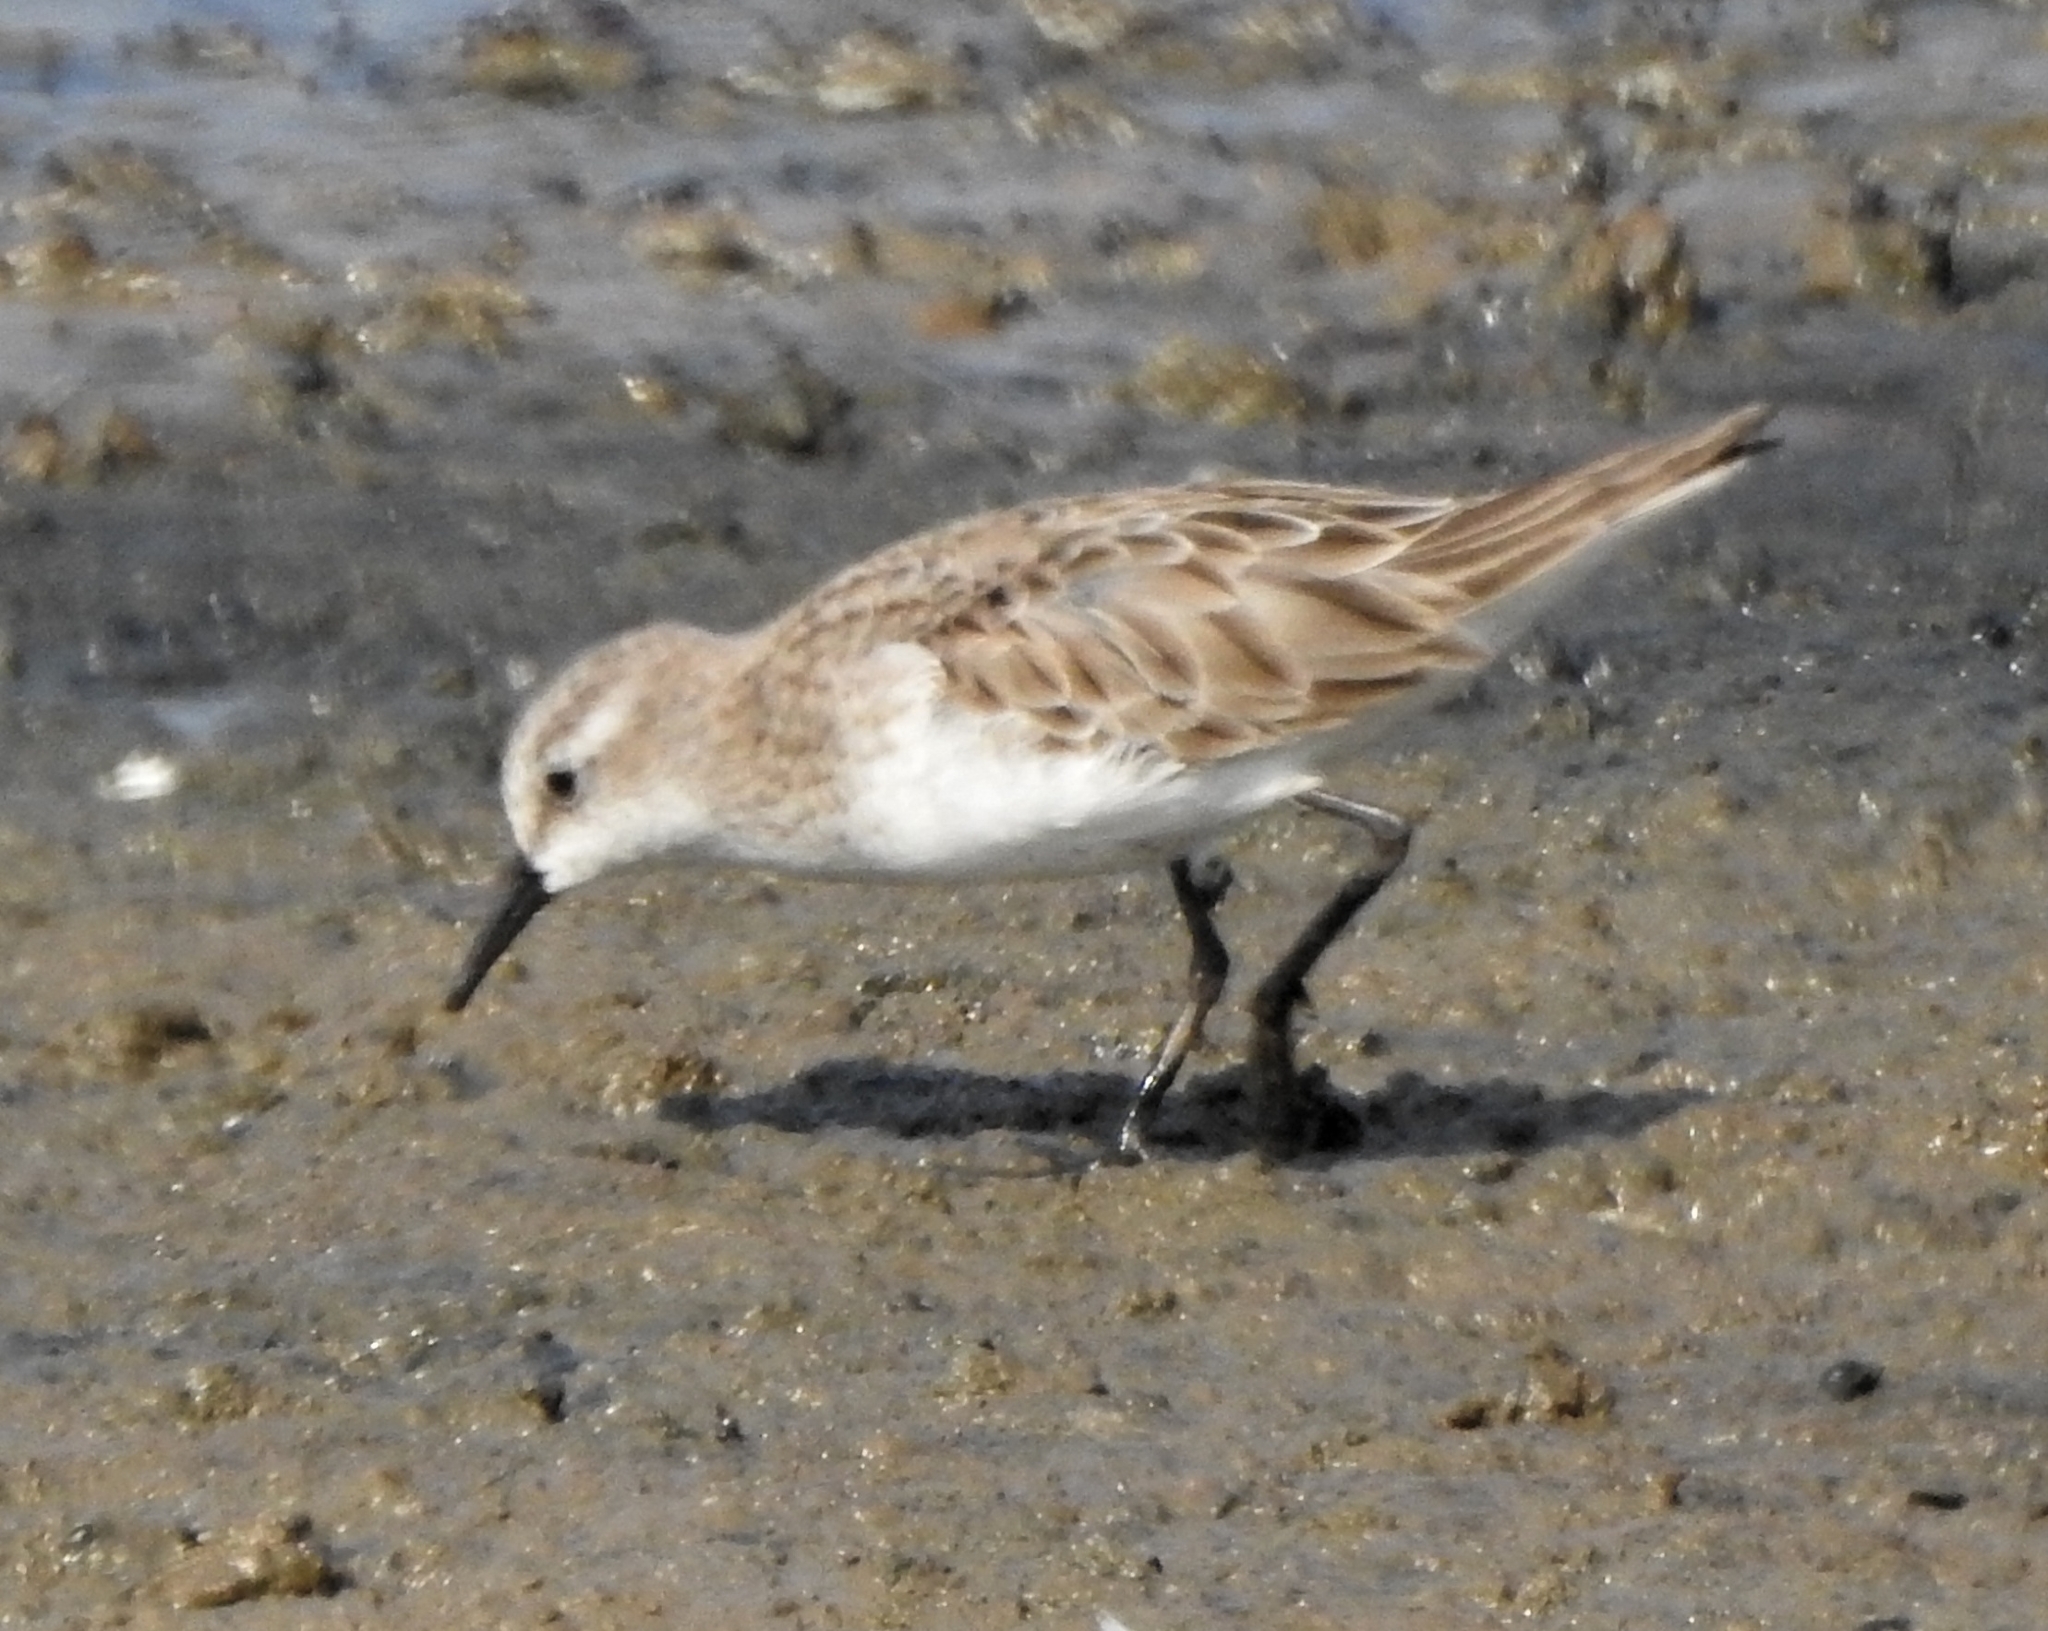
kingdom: Animalia
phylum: Chordata
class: Aves
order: Charadriiformes
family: Scolopacidae
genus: Calidris
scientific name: Calidris minuta
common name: Little stint
